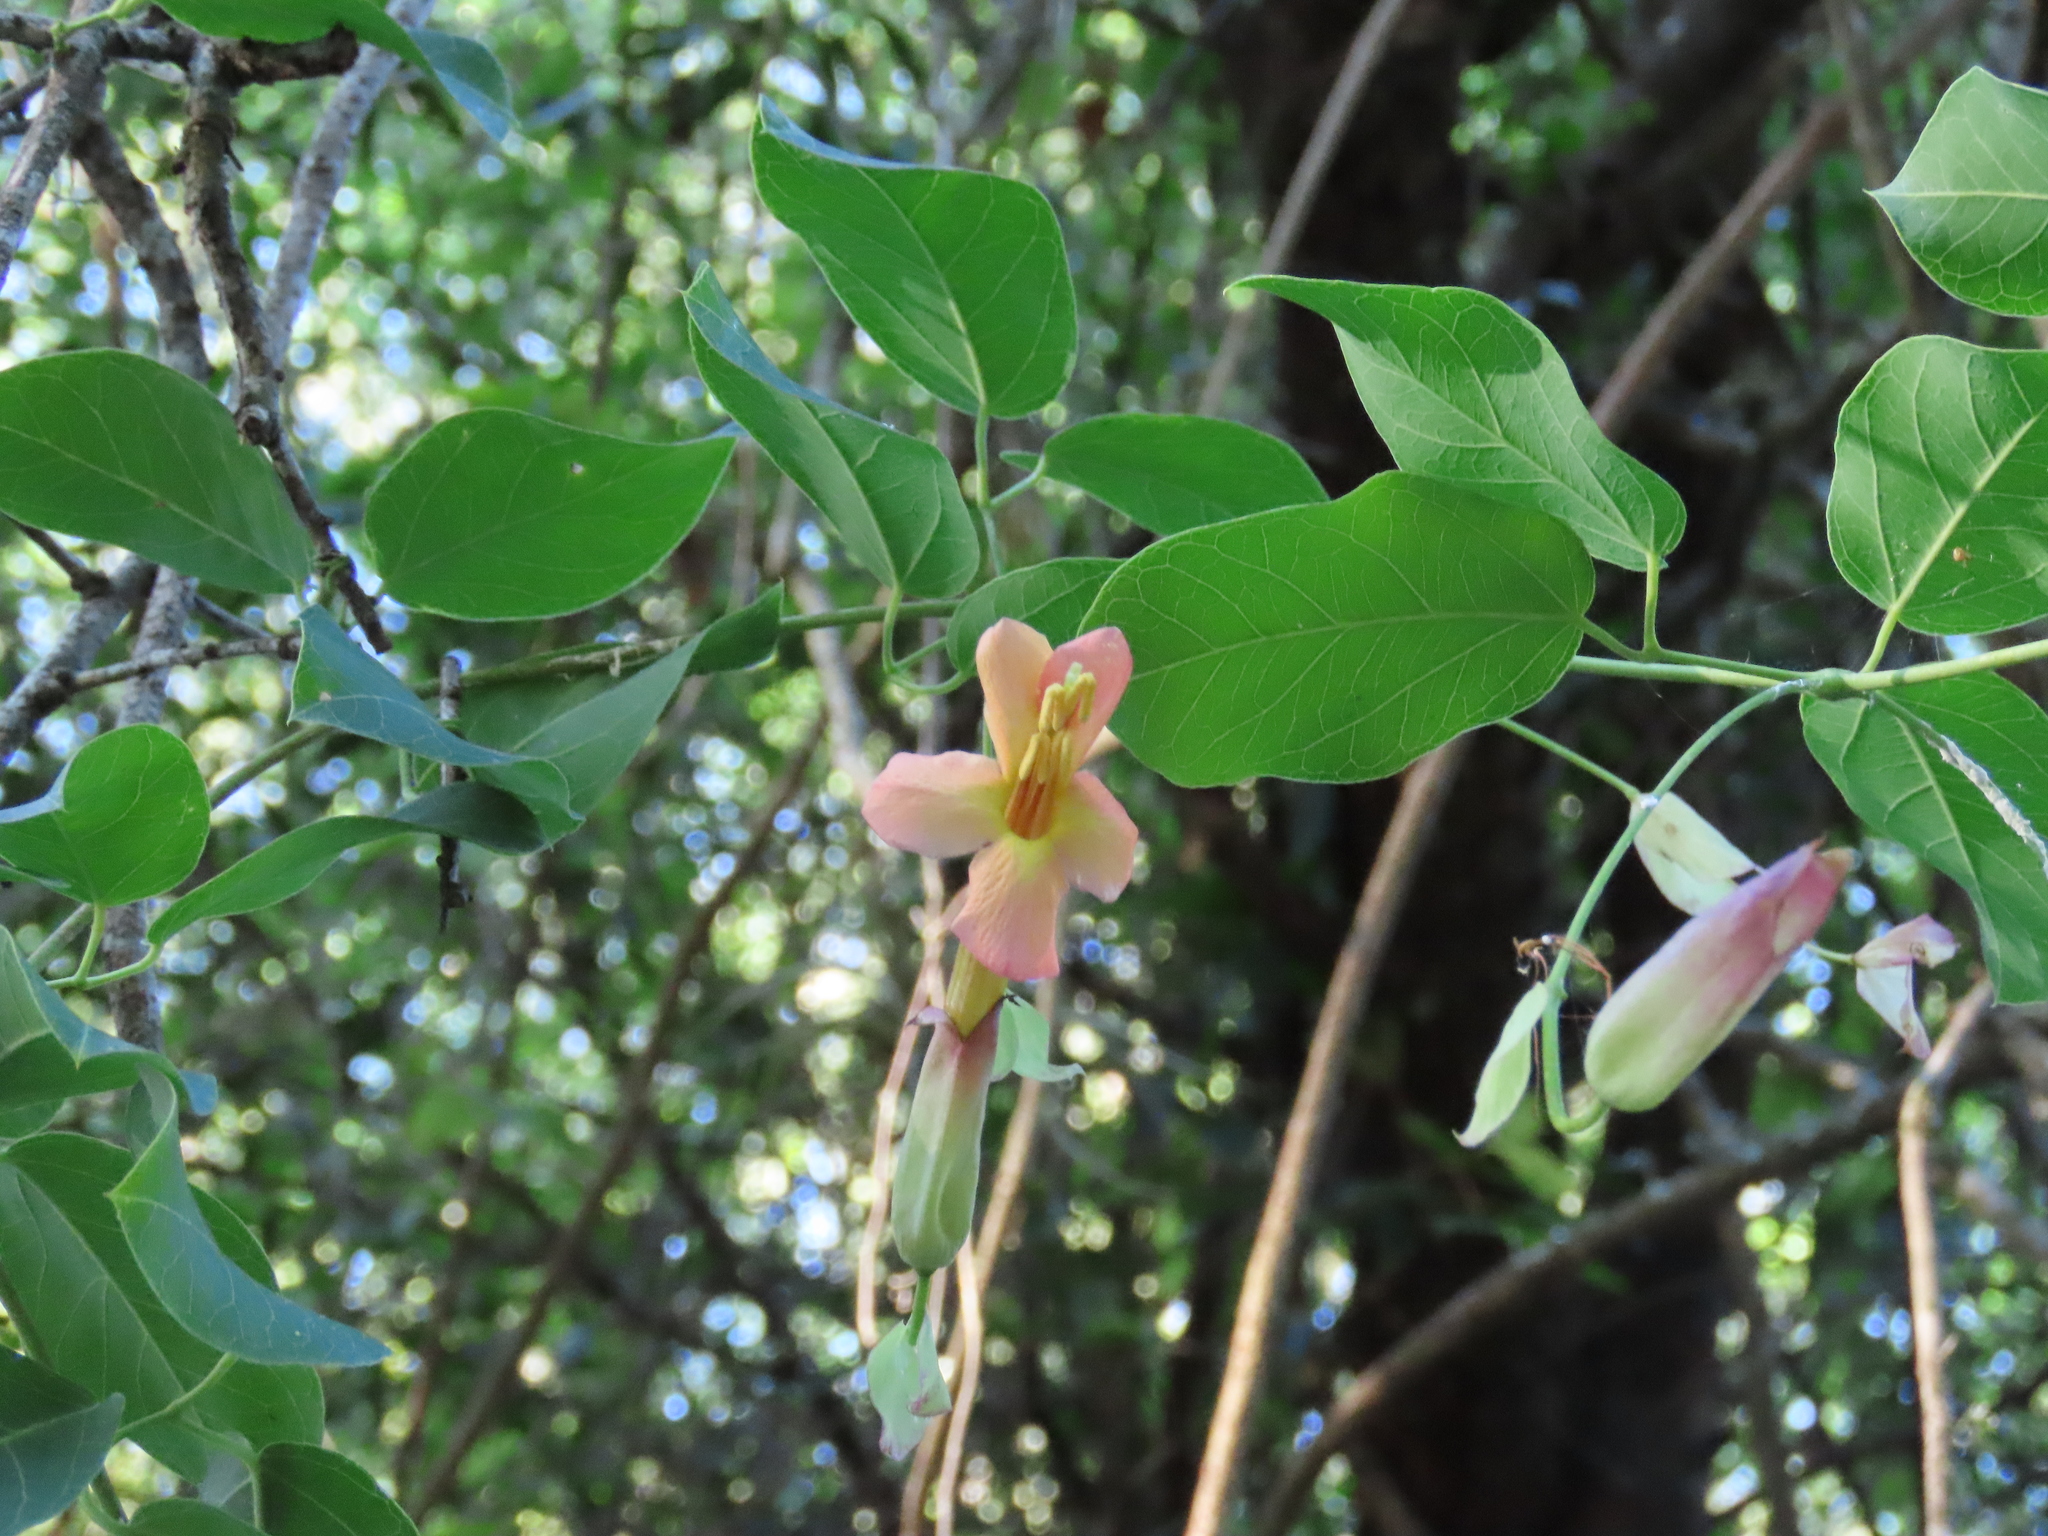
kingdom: Plantae
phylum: Tracheophyta
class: Magnoliopsida
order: Lamiales
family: Bignoniaceae
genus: Dolichandra
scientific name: Dolichandra cynanchoides
